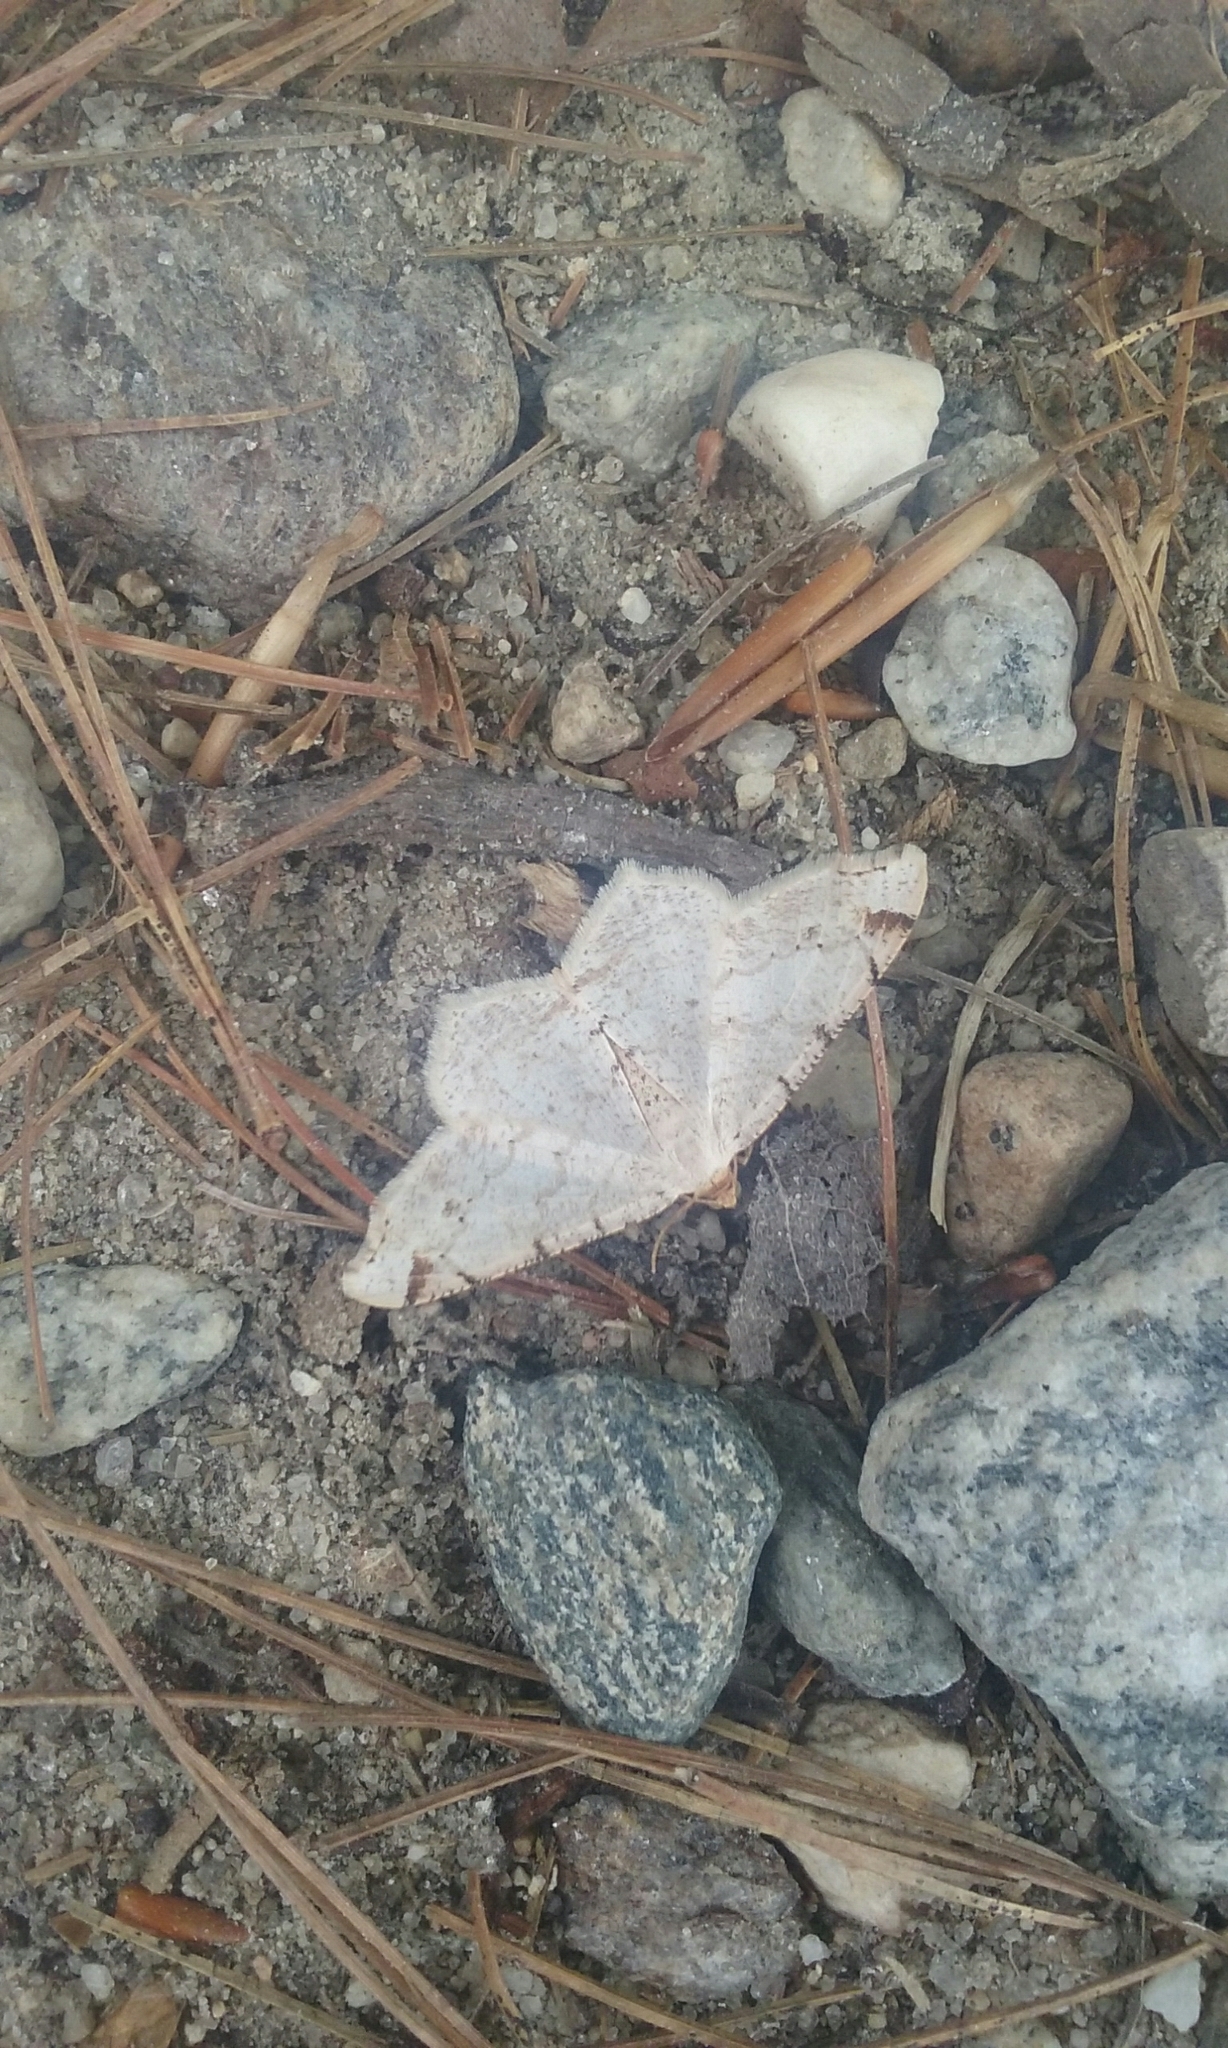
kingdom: Animalia
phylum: Arthropoda
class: Insecta
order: Lepidoptera
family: Geometridae
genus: Macaria
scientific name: Macaria pustularia
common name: Lesser maple spanworm moth
